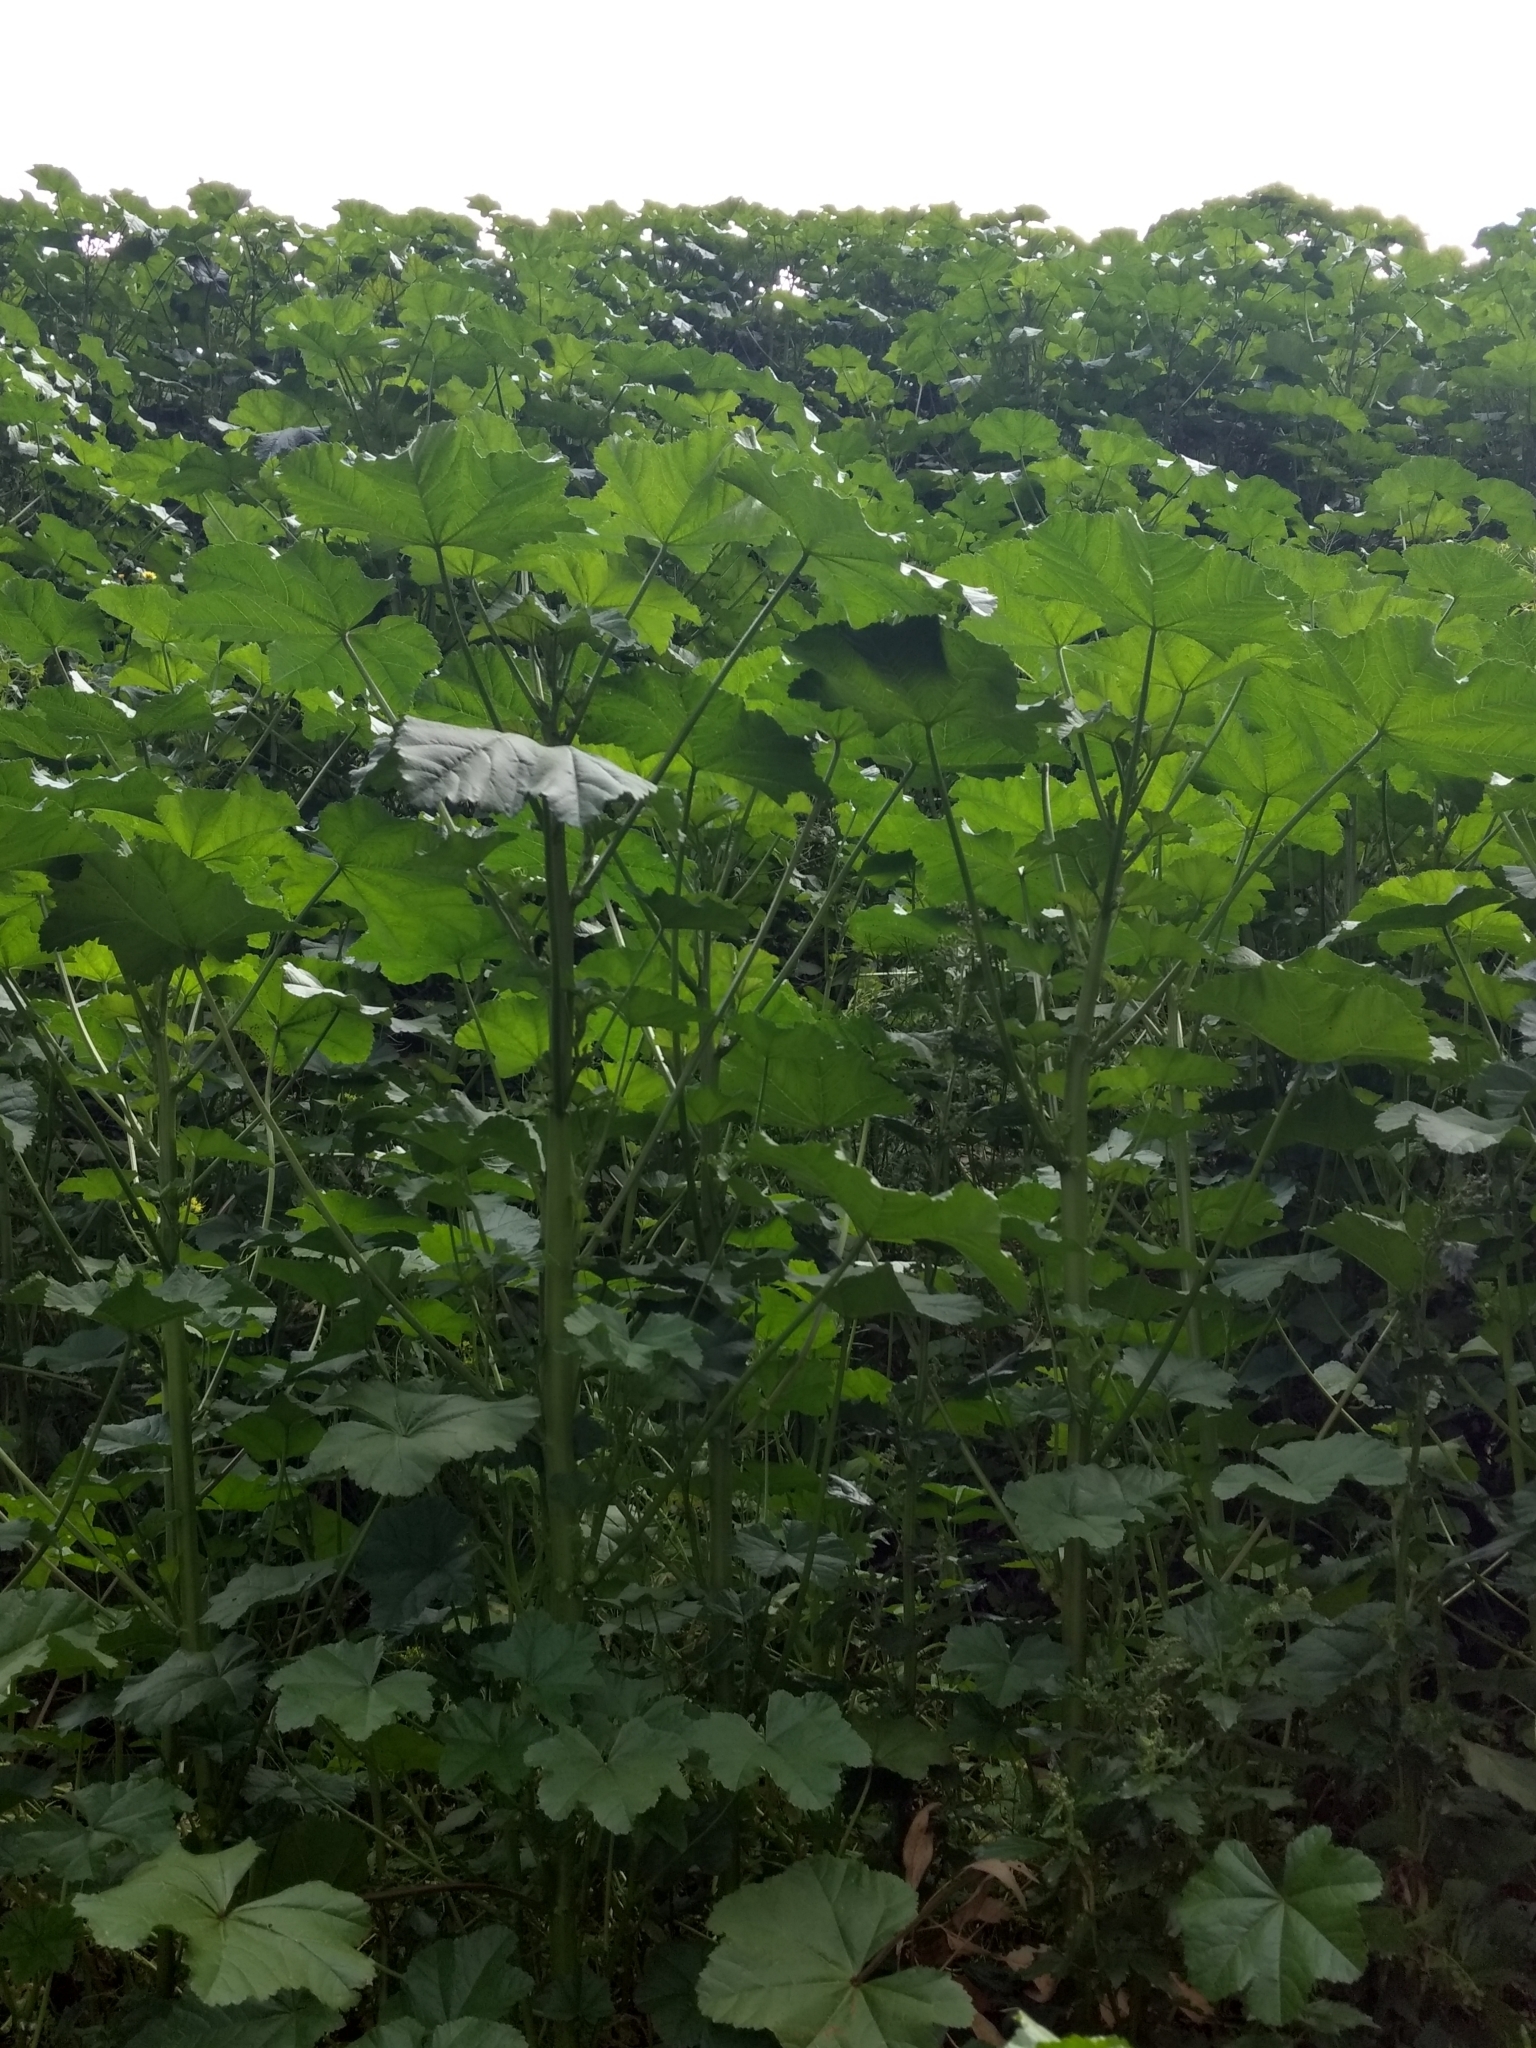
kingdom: Plantae
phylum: Tracheophyta
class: Magnoliopsida
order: Malvales
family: Malvaceae
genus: Malva
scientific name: Malva parviflora
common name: Least mallow
